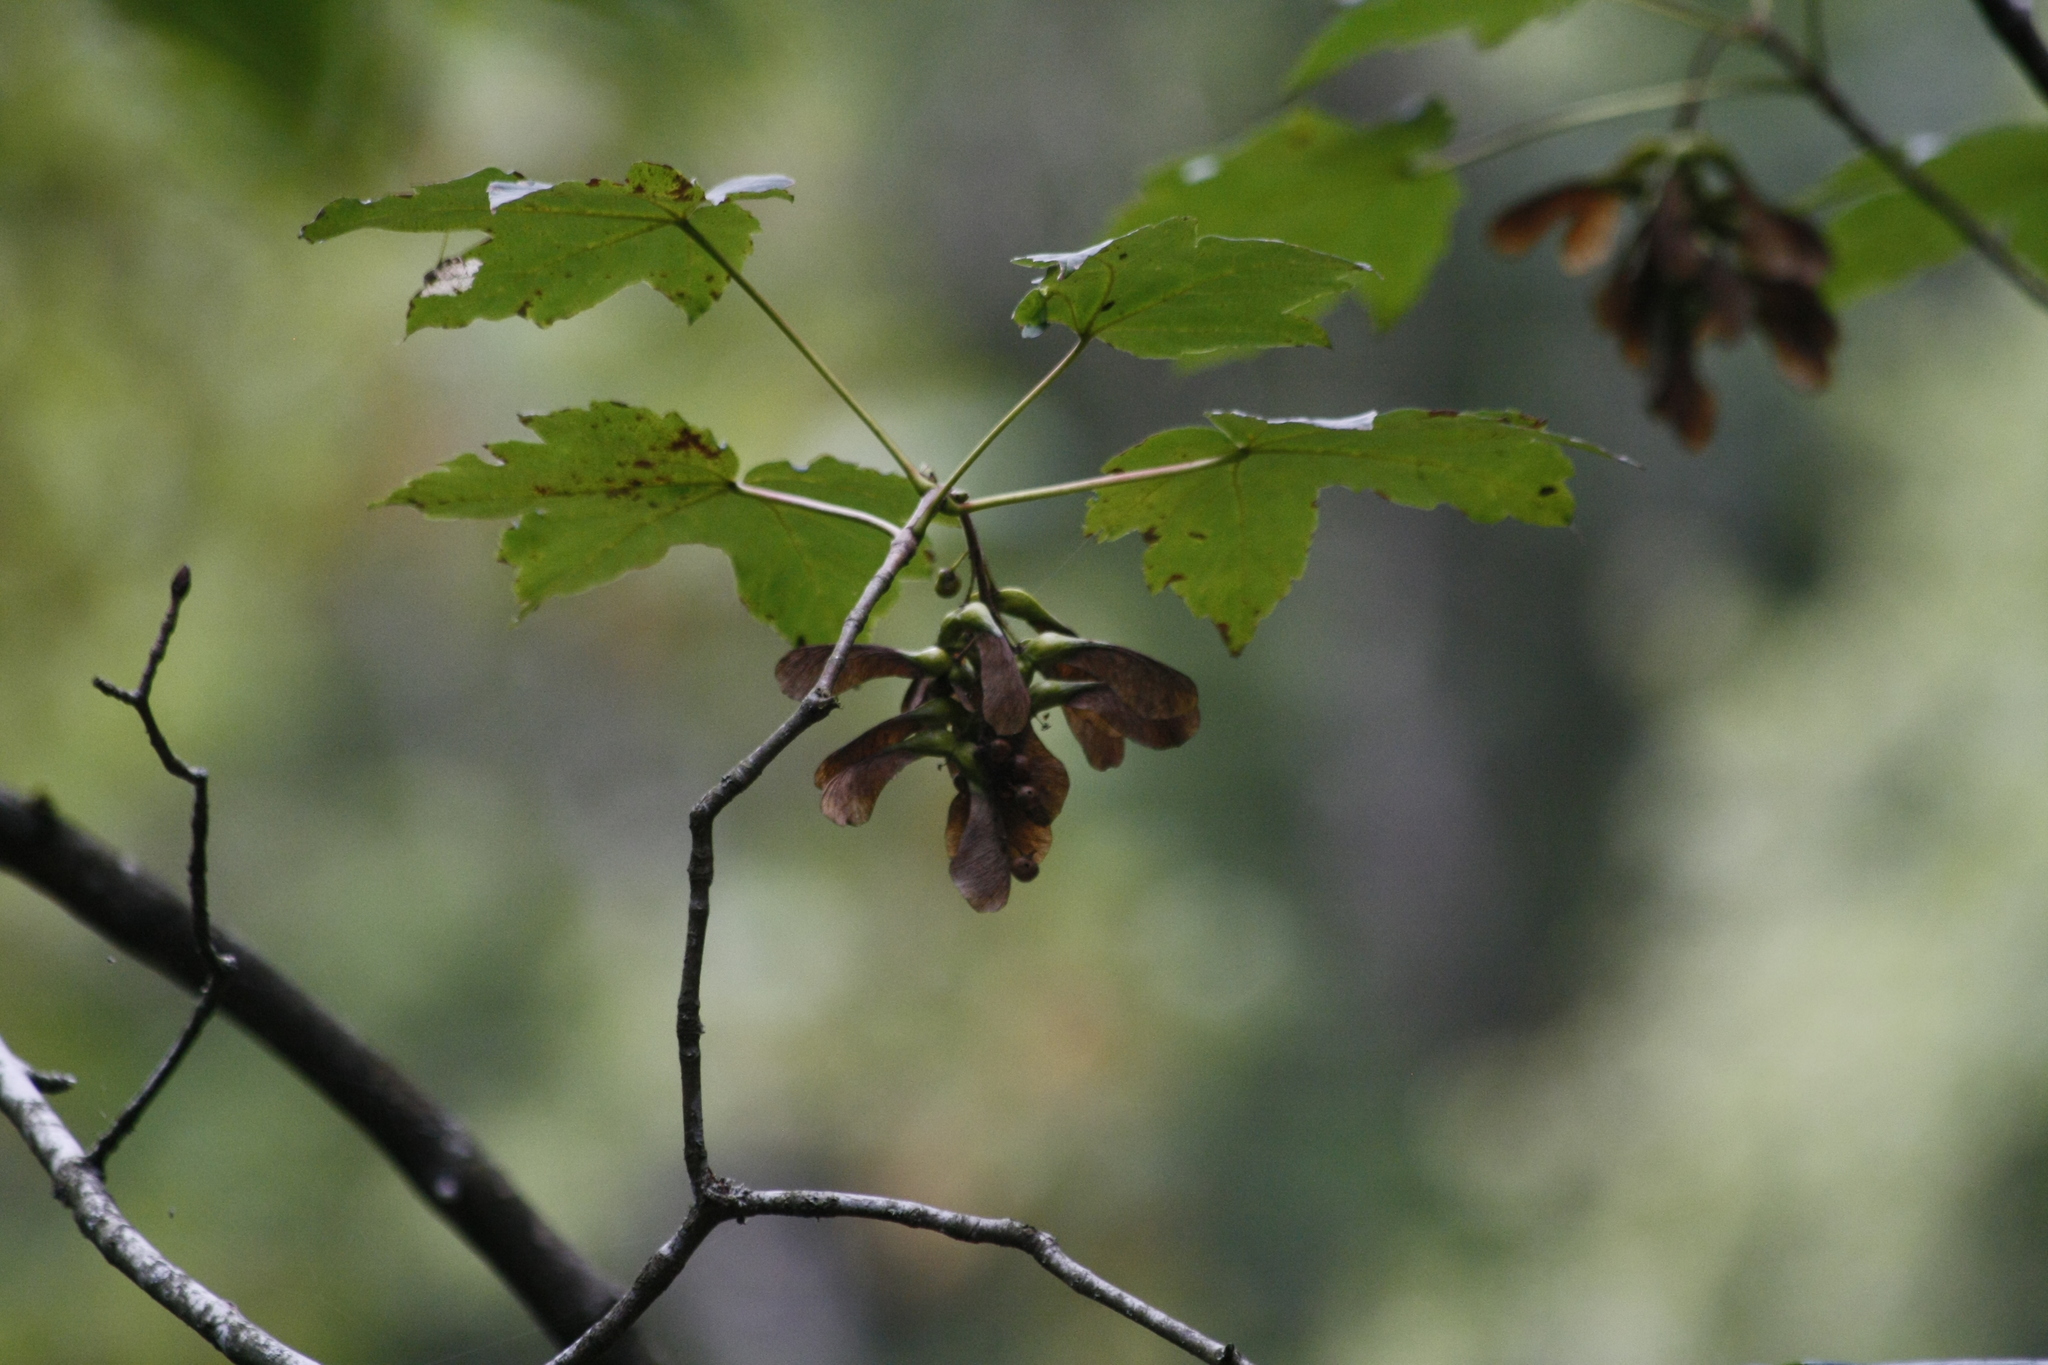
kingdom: Plantae
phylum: Tracheophyta
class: Magnoliopsida
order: Sapindales
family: Sapindaceae
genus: Acer
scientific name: Acer pseudoplatanus
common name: Sycamore
